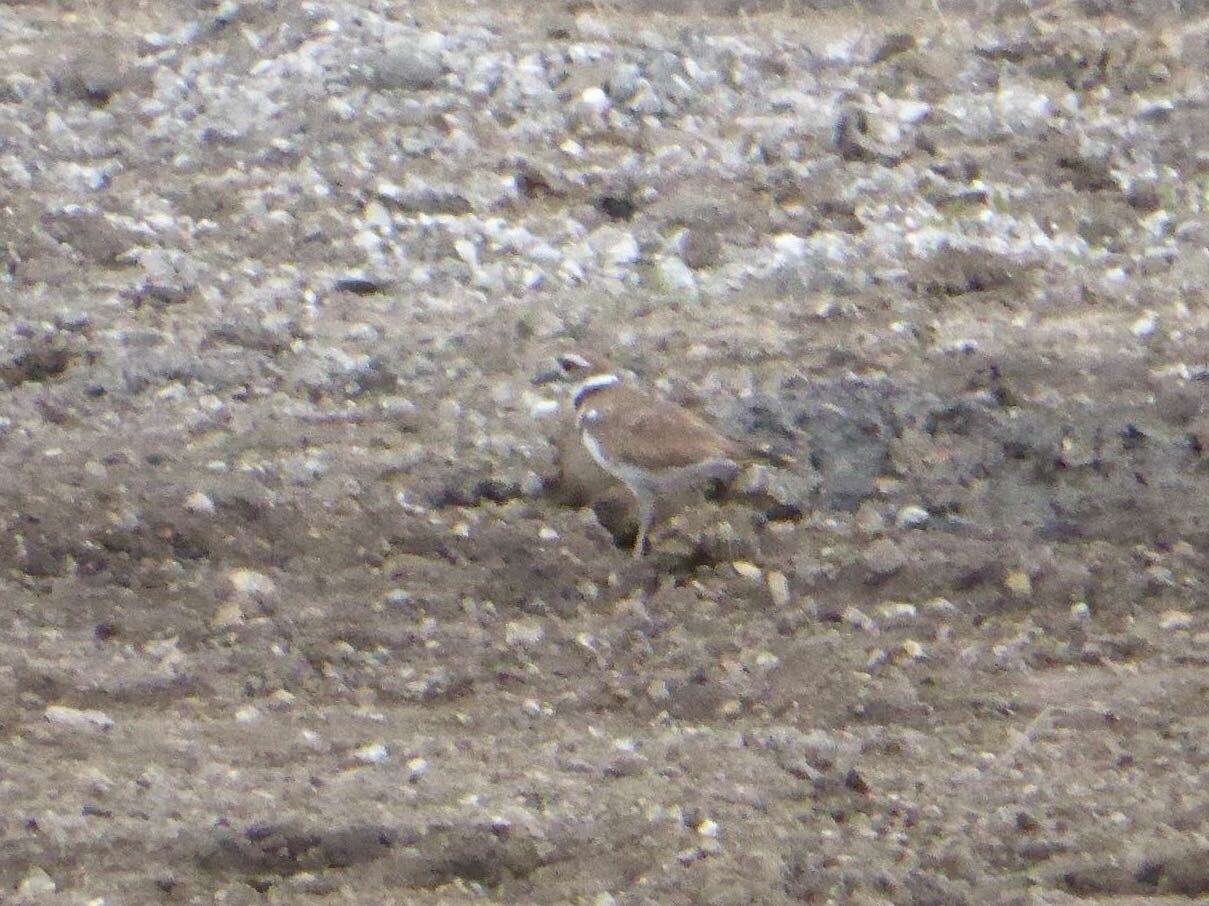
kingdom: Animalia
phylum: Chordata
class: Aves
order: Charadriiformes
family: Charadriidae
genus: Charadrius
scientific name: Charadrius vociferus
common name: Killdeer
